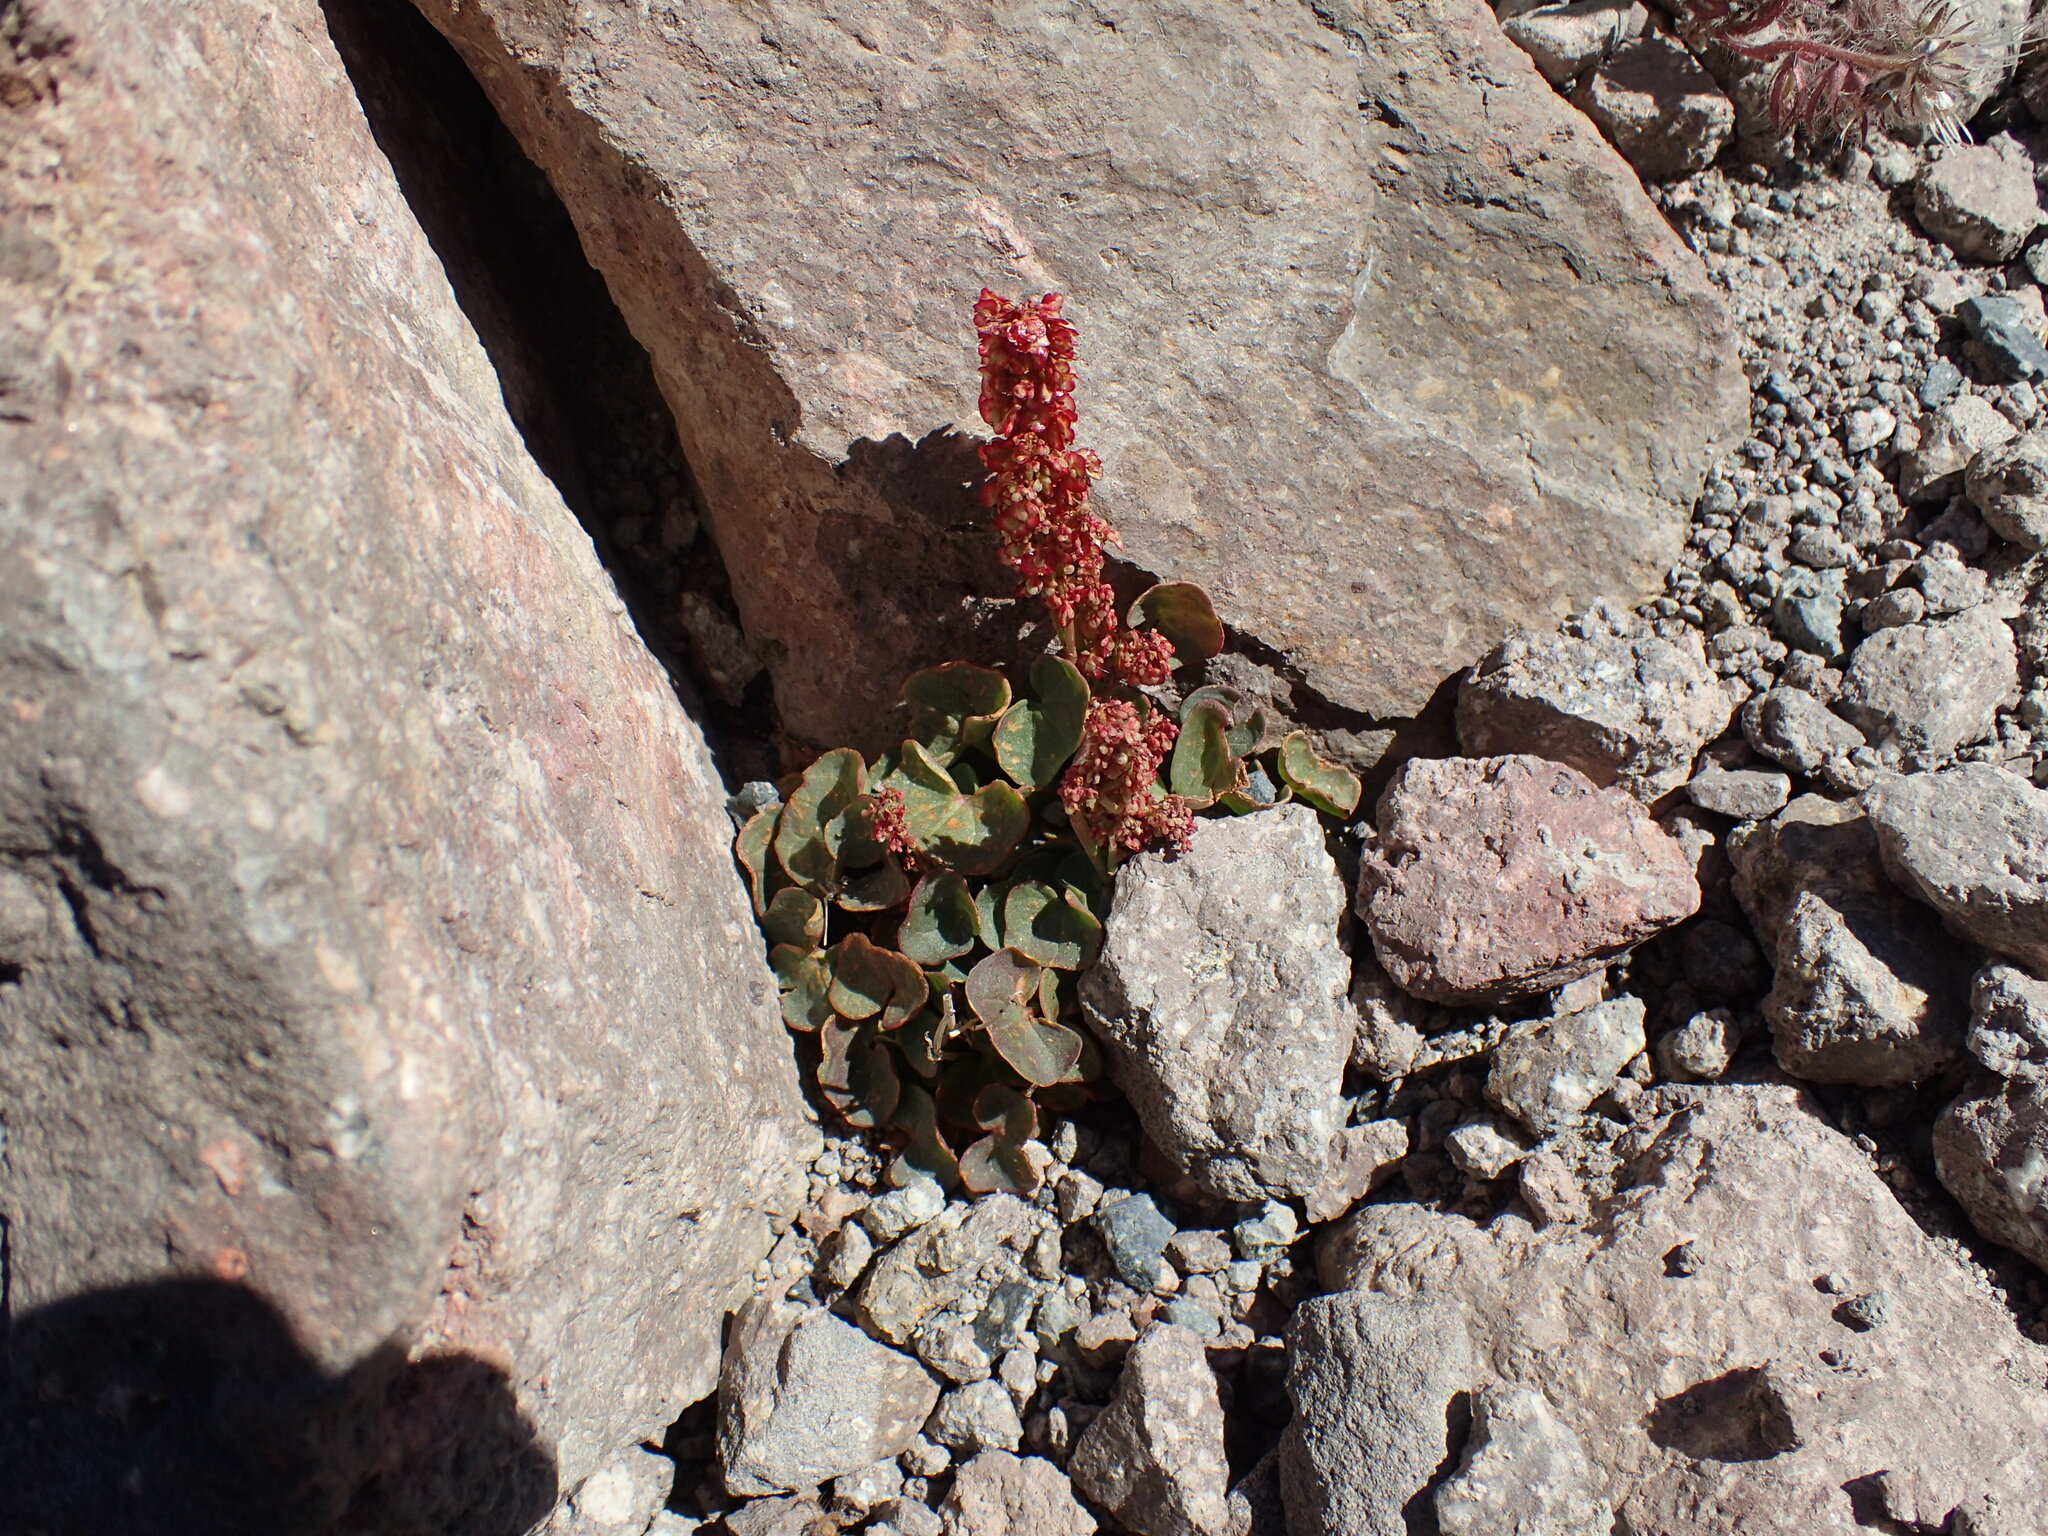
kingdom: Plantae
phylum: Tracheophyta
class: Magnoliopsida
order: Caryophyllales
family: Polygonaceae
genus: Oxyria
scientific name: Oxyria digyna
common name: Alpine mountain-sorrel
